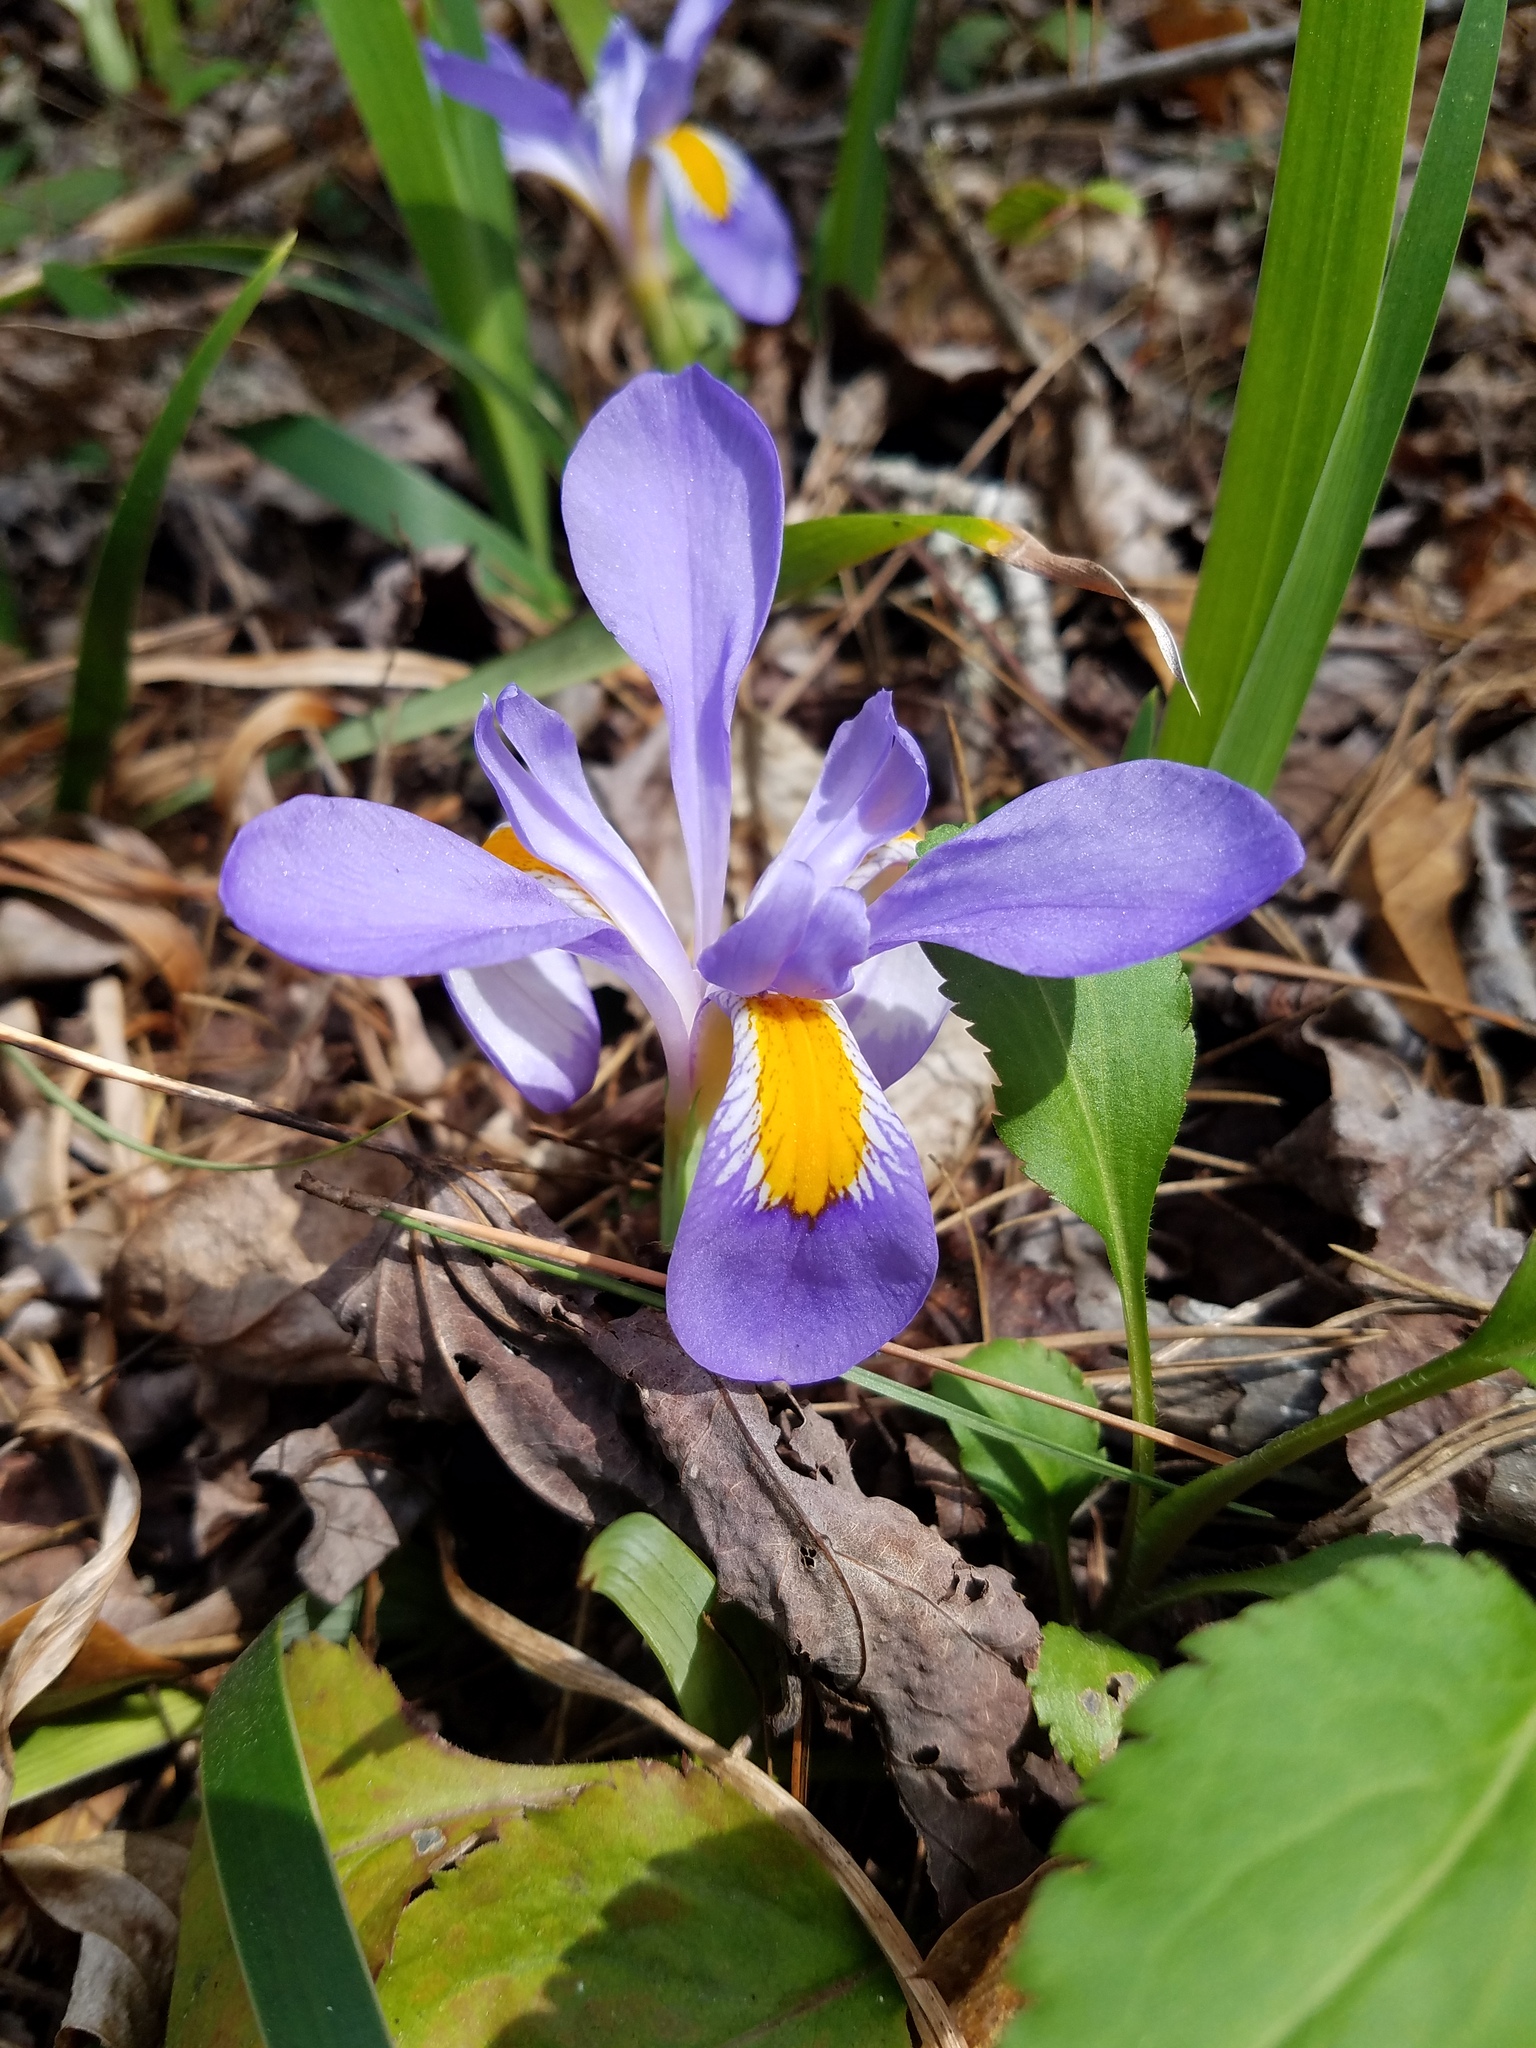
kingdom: Plantae
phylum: Tracheophyta
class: Liliopsida
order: Asparagales
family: Iridaceae
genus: Iris
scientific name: Iris verna
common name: Dwarf iris
